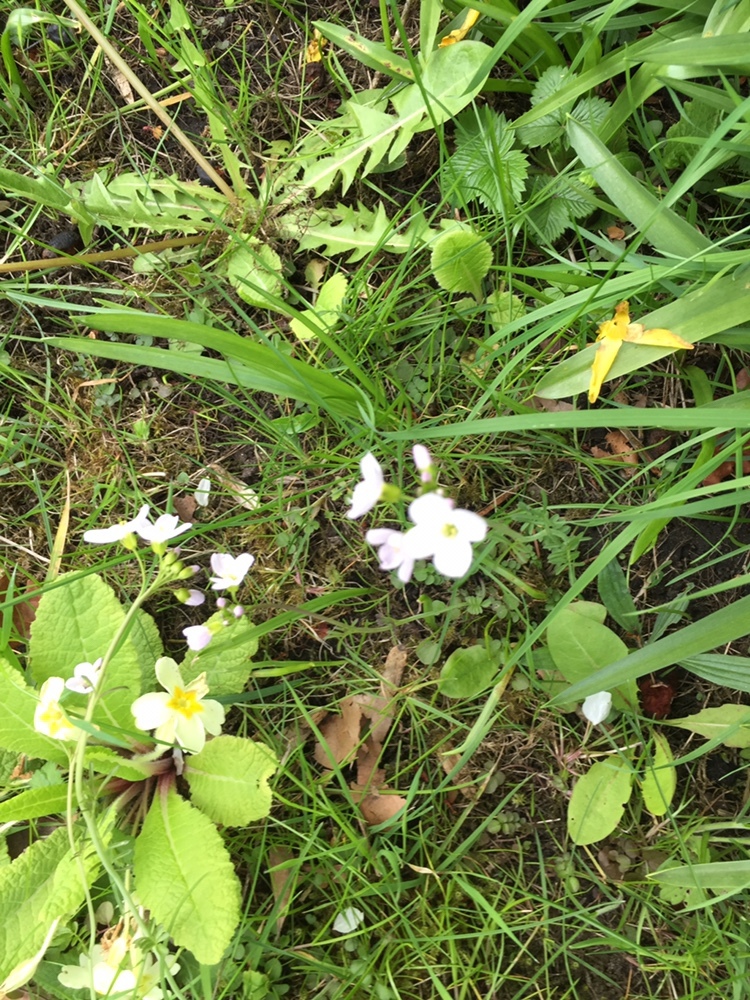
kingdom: Plantae
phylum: Tracheophyta
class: Magnoliopsida
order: Brassicales
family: Brassicaceae
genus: Cardamine
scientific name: Cardamine pratensis
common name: Cuckoo flower
